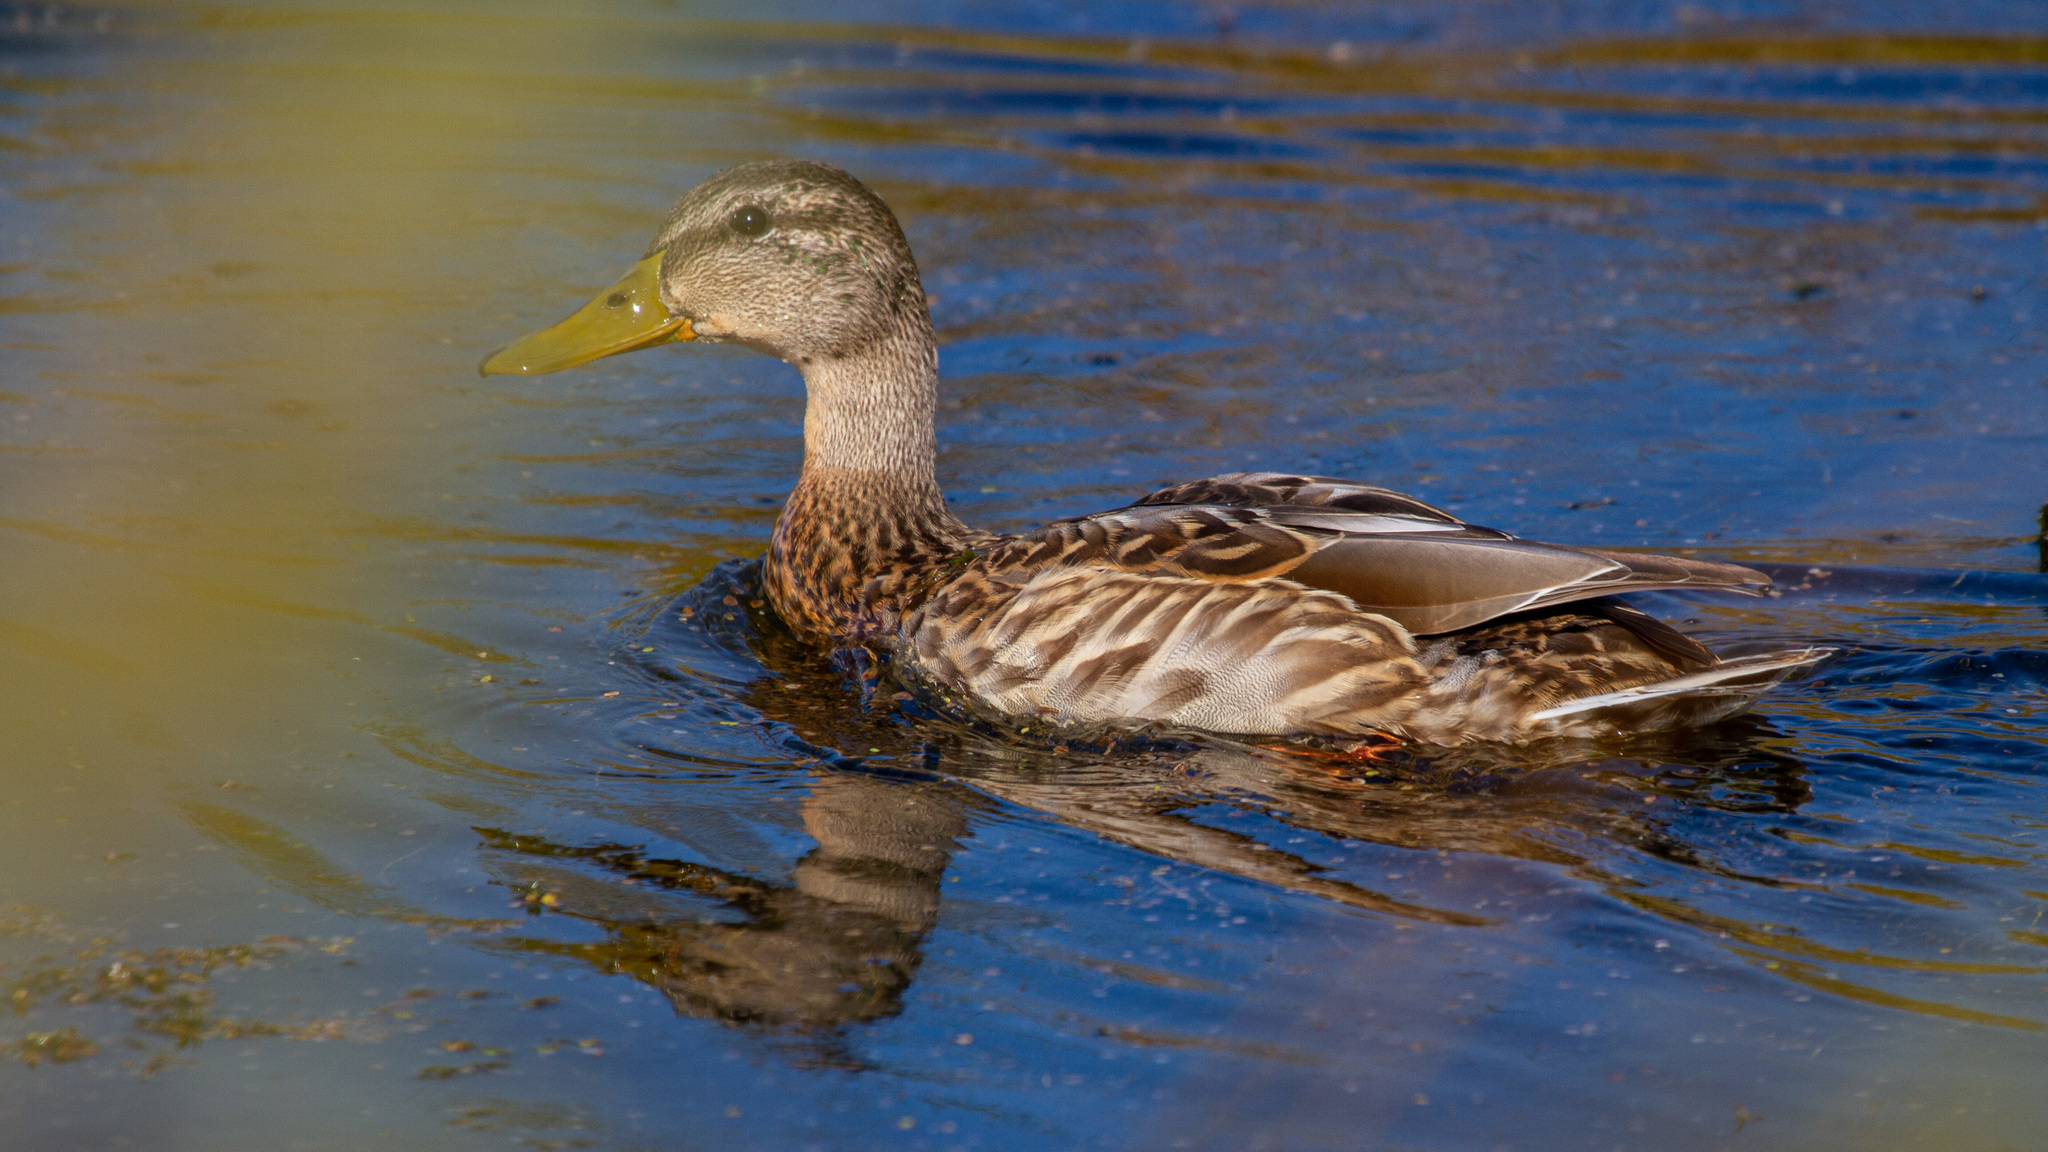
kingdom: Animalia
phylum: Chordata
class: Aves
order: Anseriformes
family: Anatidae
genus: Anas
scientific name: Anas platyrhynchos
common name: Mallard
